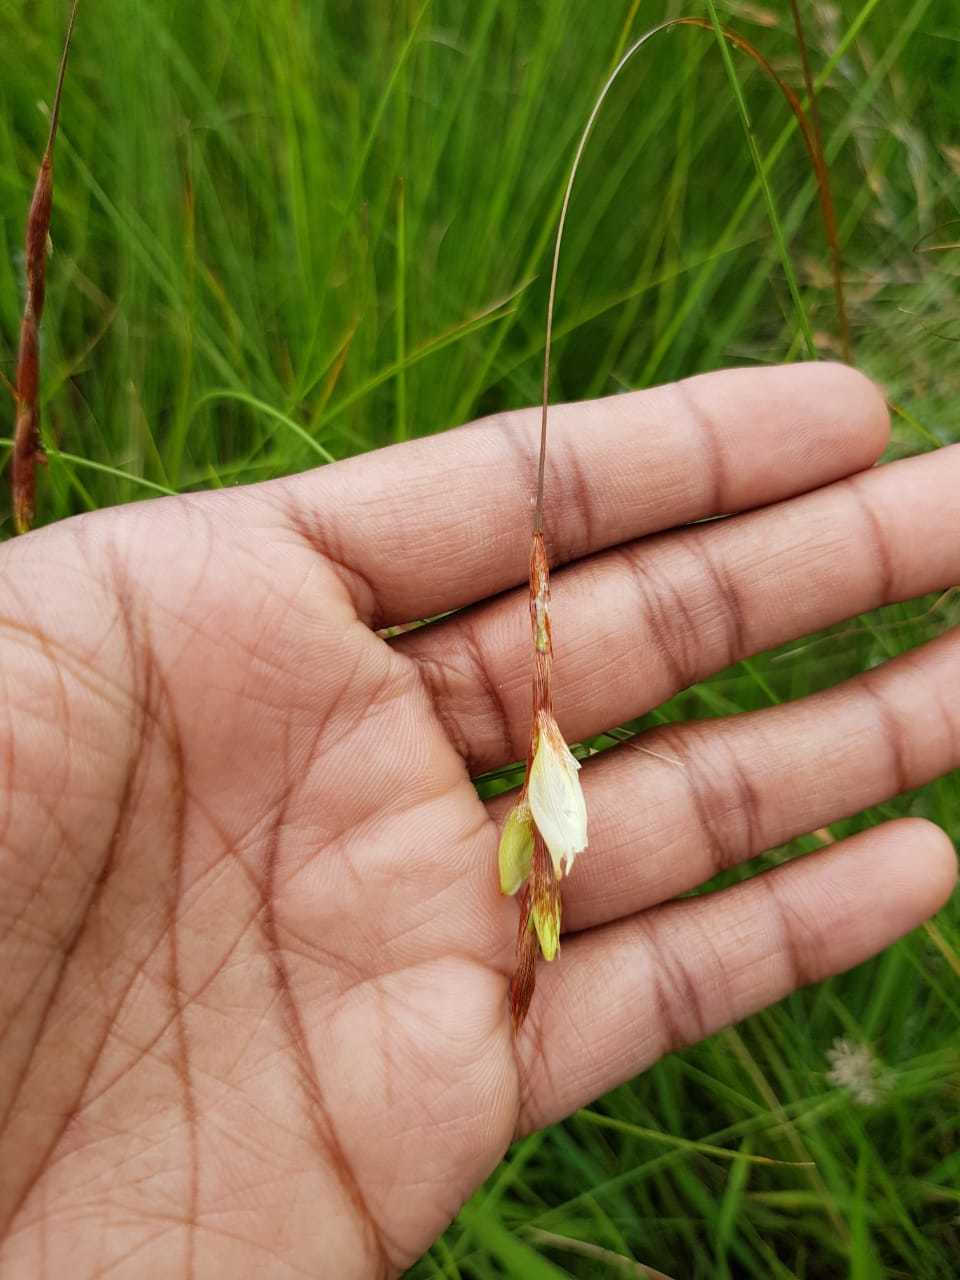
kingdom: Plantae
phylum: Tracheophyta
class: Liliopsida
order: Asparagales
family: Iridaceae
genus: Dierama
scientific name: Dierama pumilum
